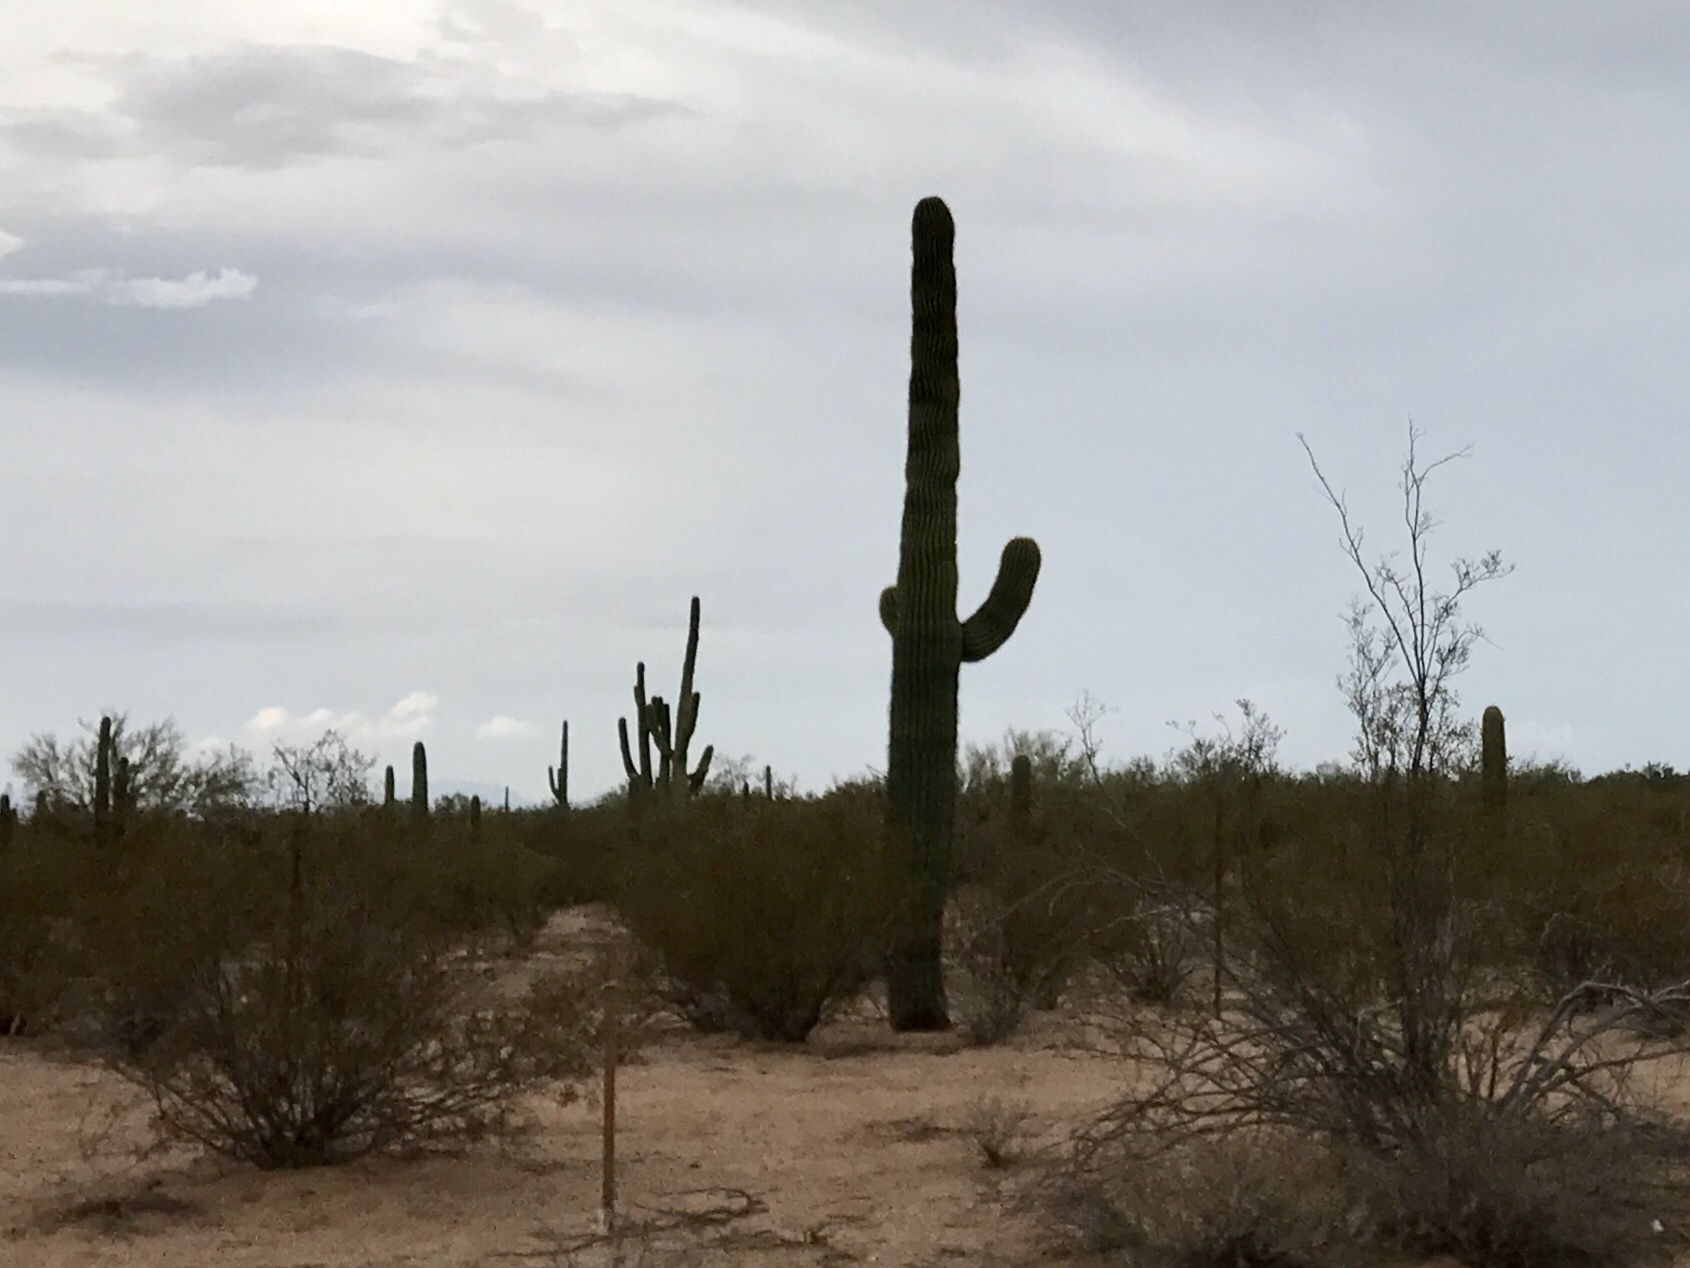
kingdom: Plantae
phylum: Tracheophyta
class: Magnoliopsida
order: Caryophyllales
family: Cactaceae
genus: Carnegiea
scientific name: Carnegiea gigantea
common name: Saguaro
